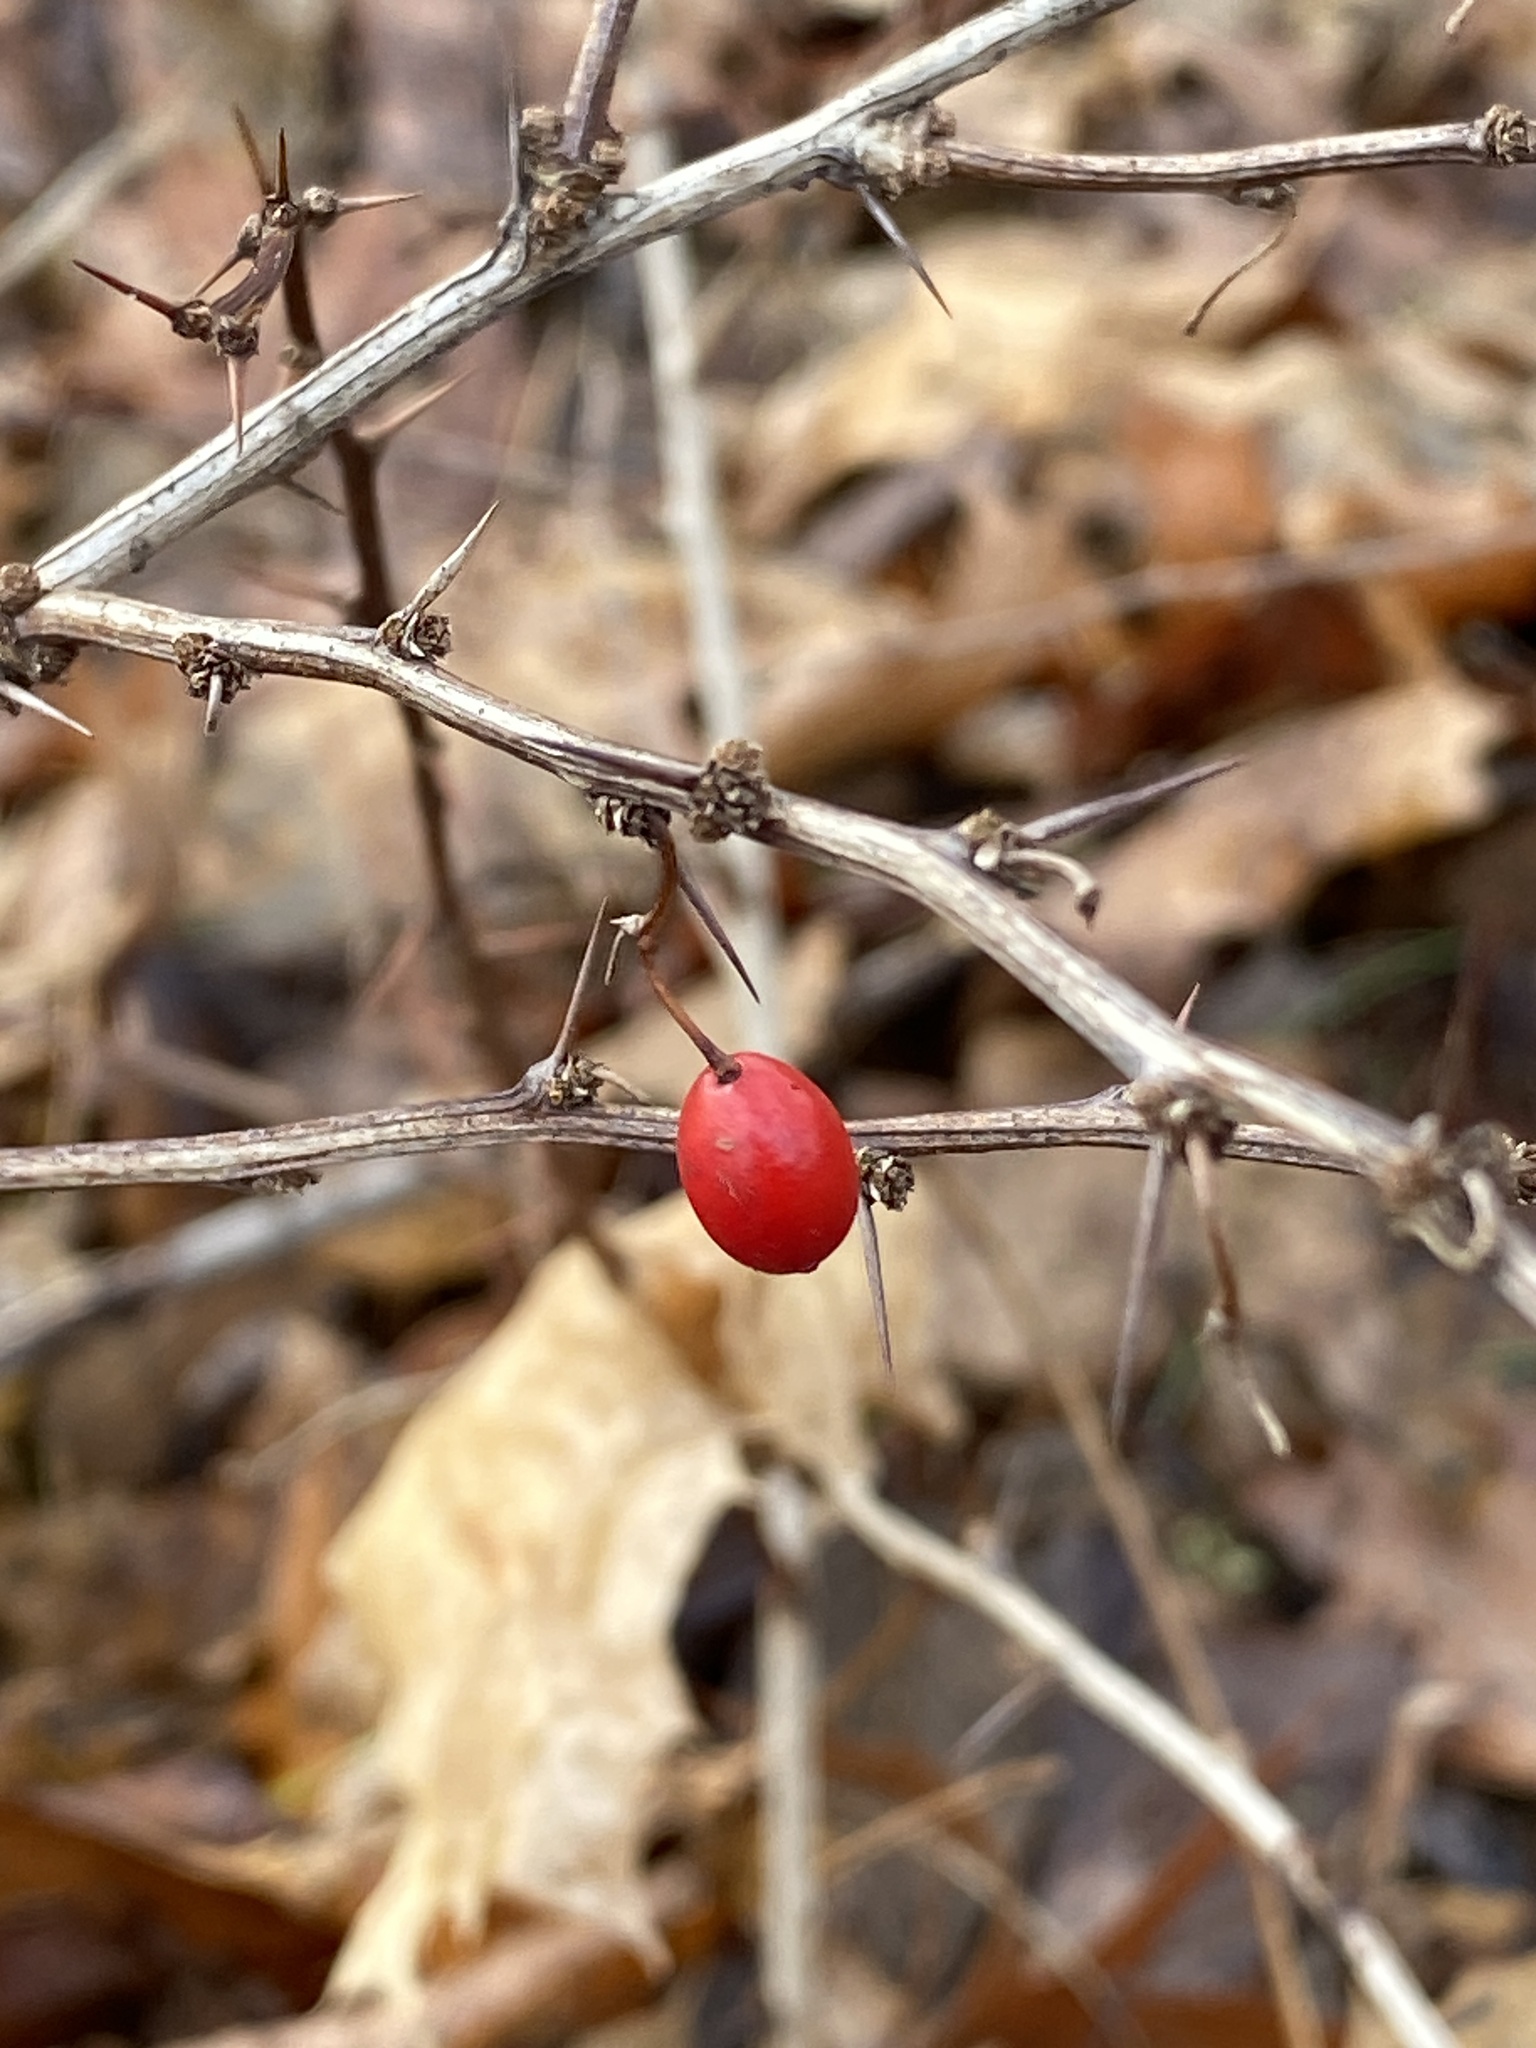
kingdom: Plantae
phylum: Tracheophyta
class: Magnoliopsida
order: Ranunculales
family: Berberidaceae
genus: Berberis
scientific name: Berberis thunbergii
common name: Japanese barberry
